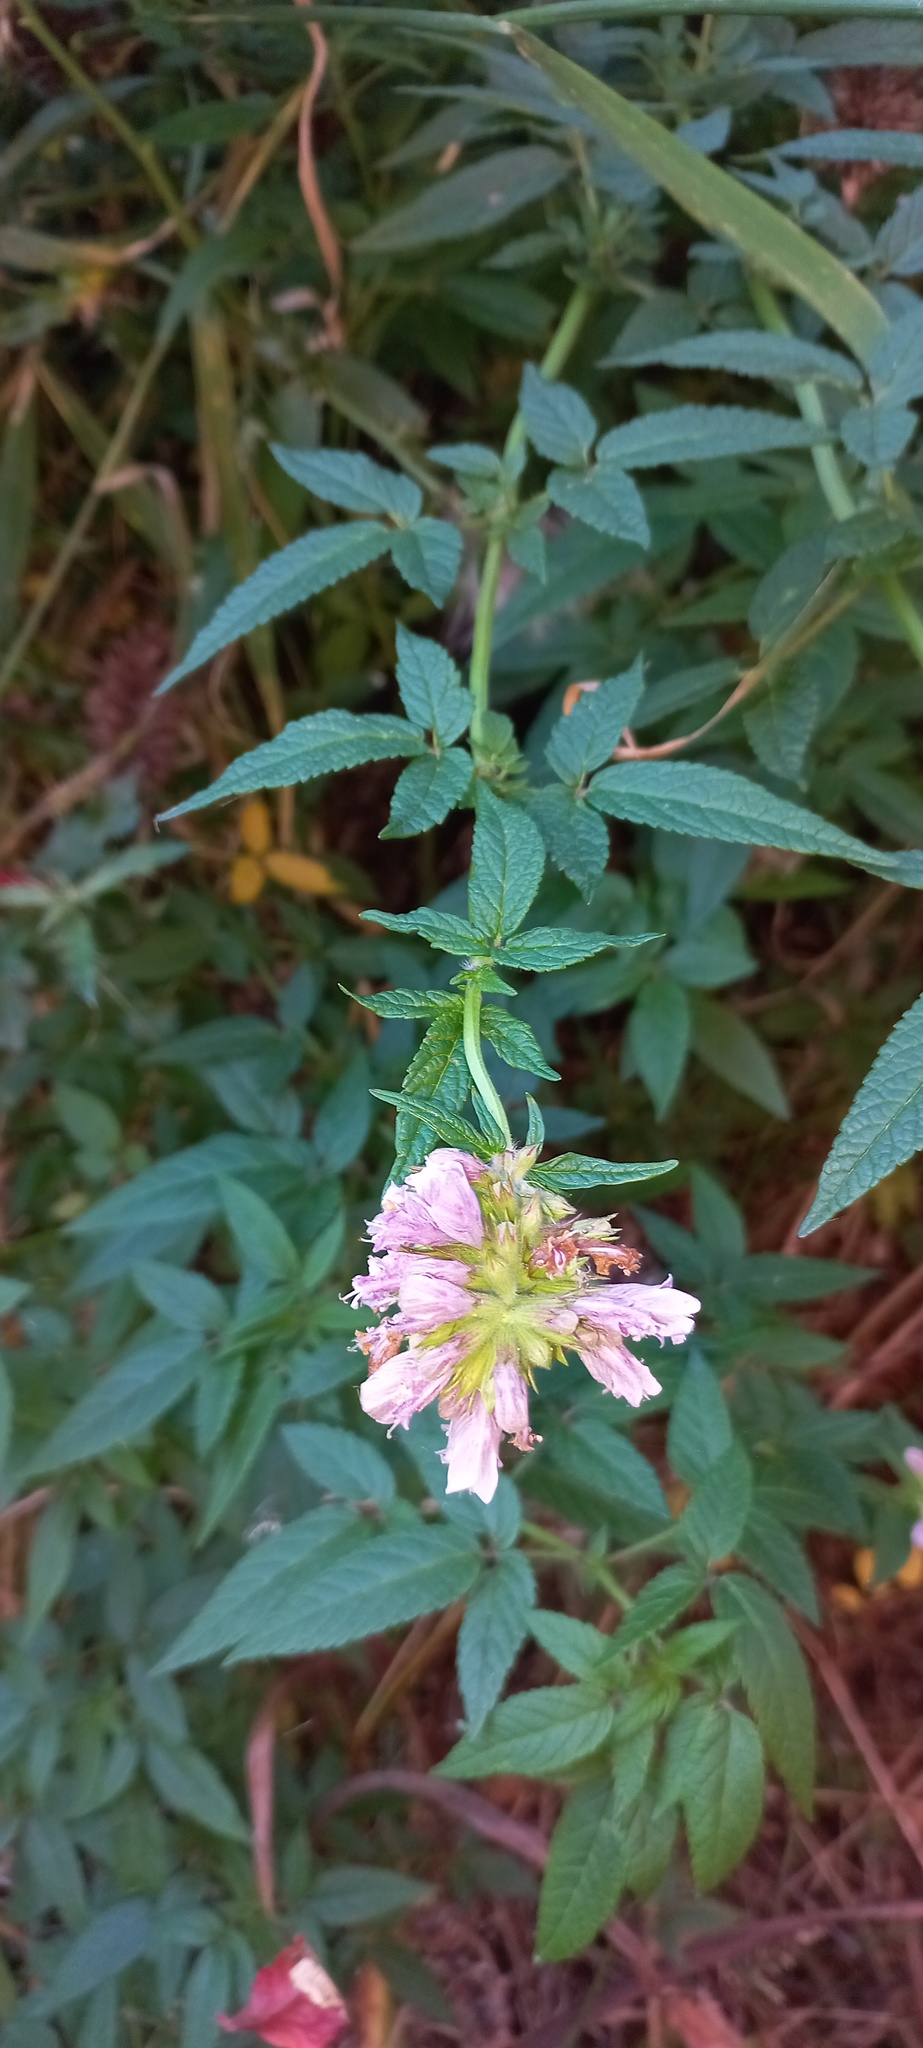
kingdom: Plantae
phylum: Tracheophyta
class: Magnoliopsida
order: Lamiales
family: Lamiaceae
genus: Cedronella
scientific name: Cedronella canariensis
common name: Canary islands balm
